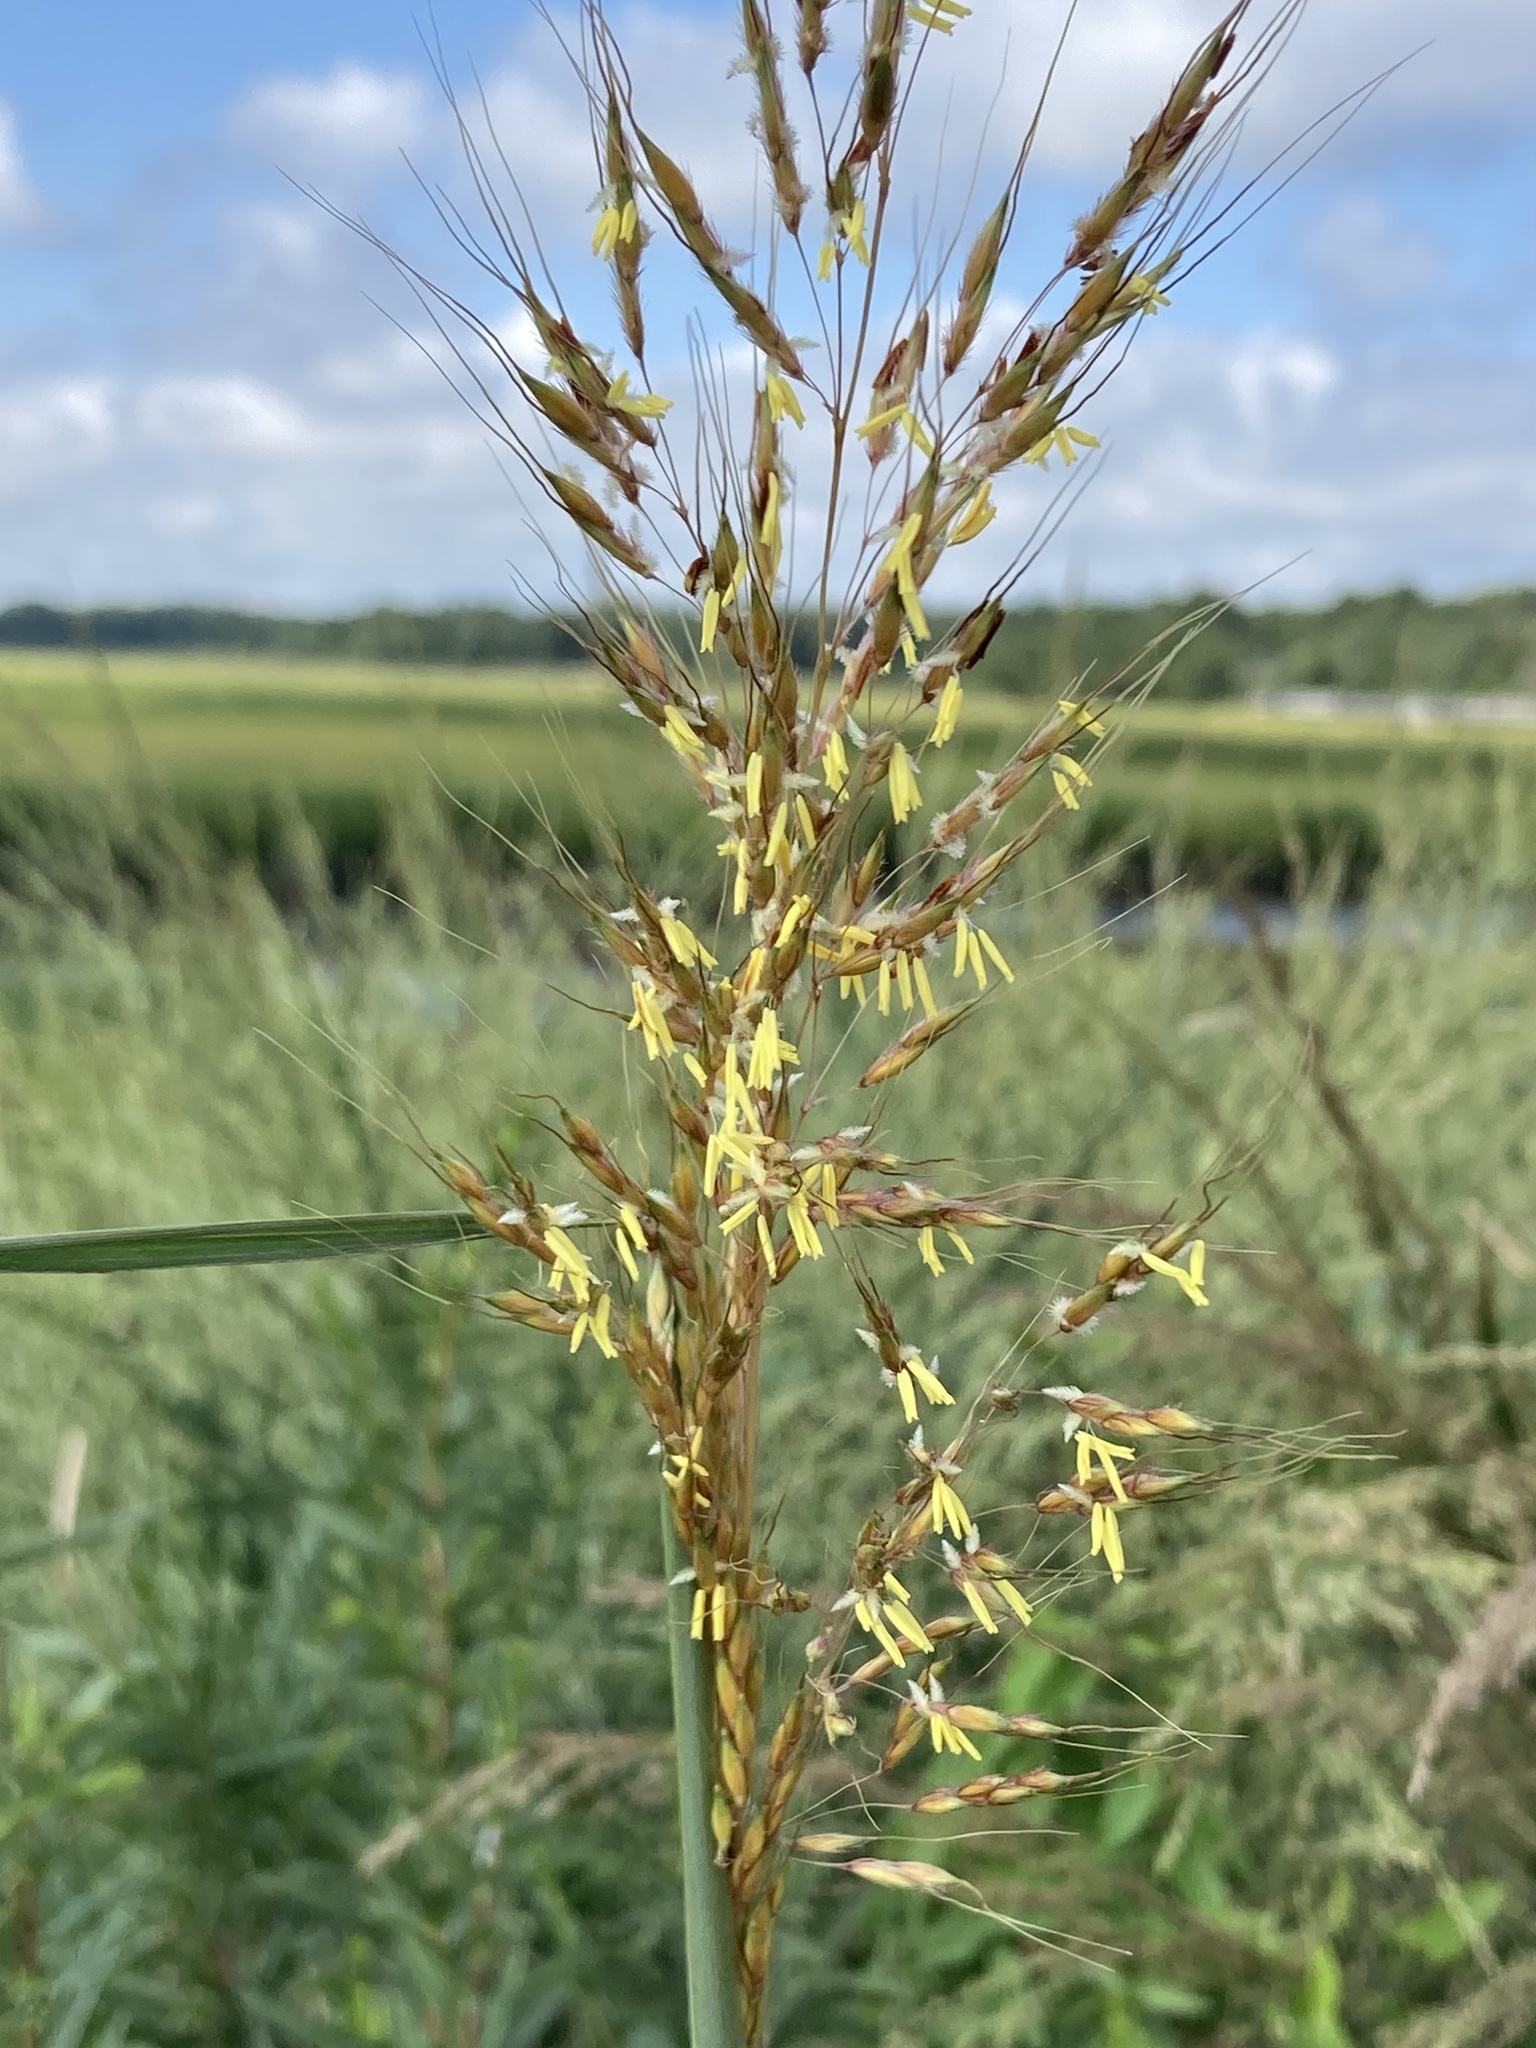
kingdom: Plantae
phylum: Tracheophyta
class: Liliopsida
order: Poales
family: Poaceae
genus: Sorghastrum
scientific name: Sorghastrum nutans
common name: Indian grass
